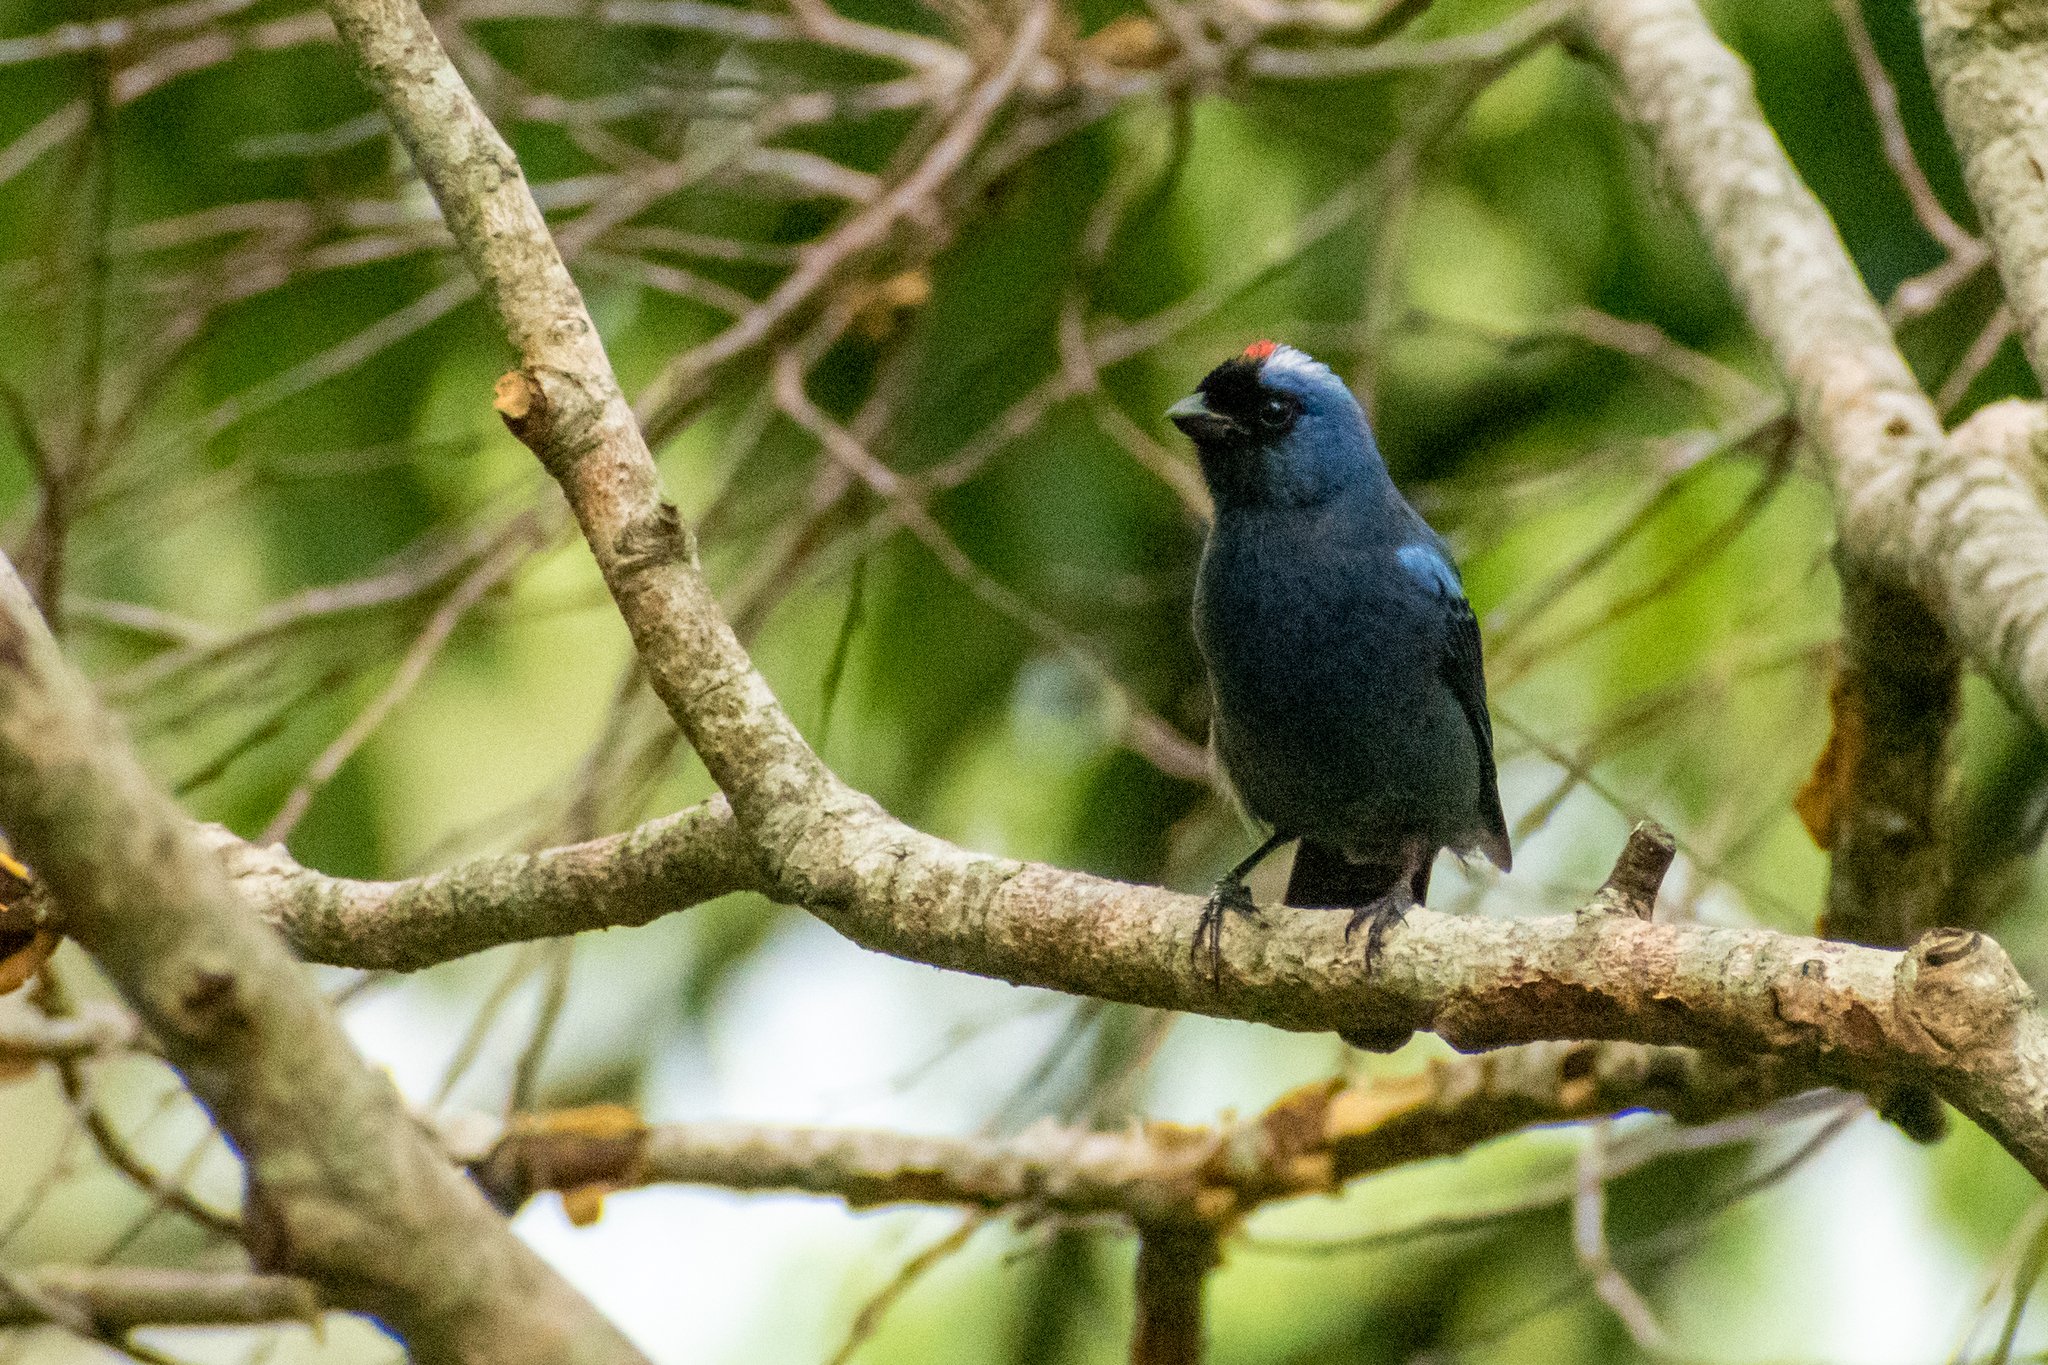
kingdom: Animalia
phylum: Chordata
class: Aves
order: Passeriformes
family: Thraupidae
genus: Stephanophorus
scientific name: Stephanophorus diadematus
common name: Diademed tanager
